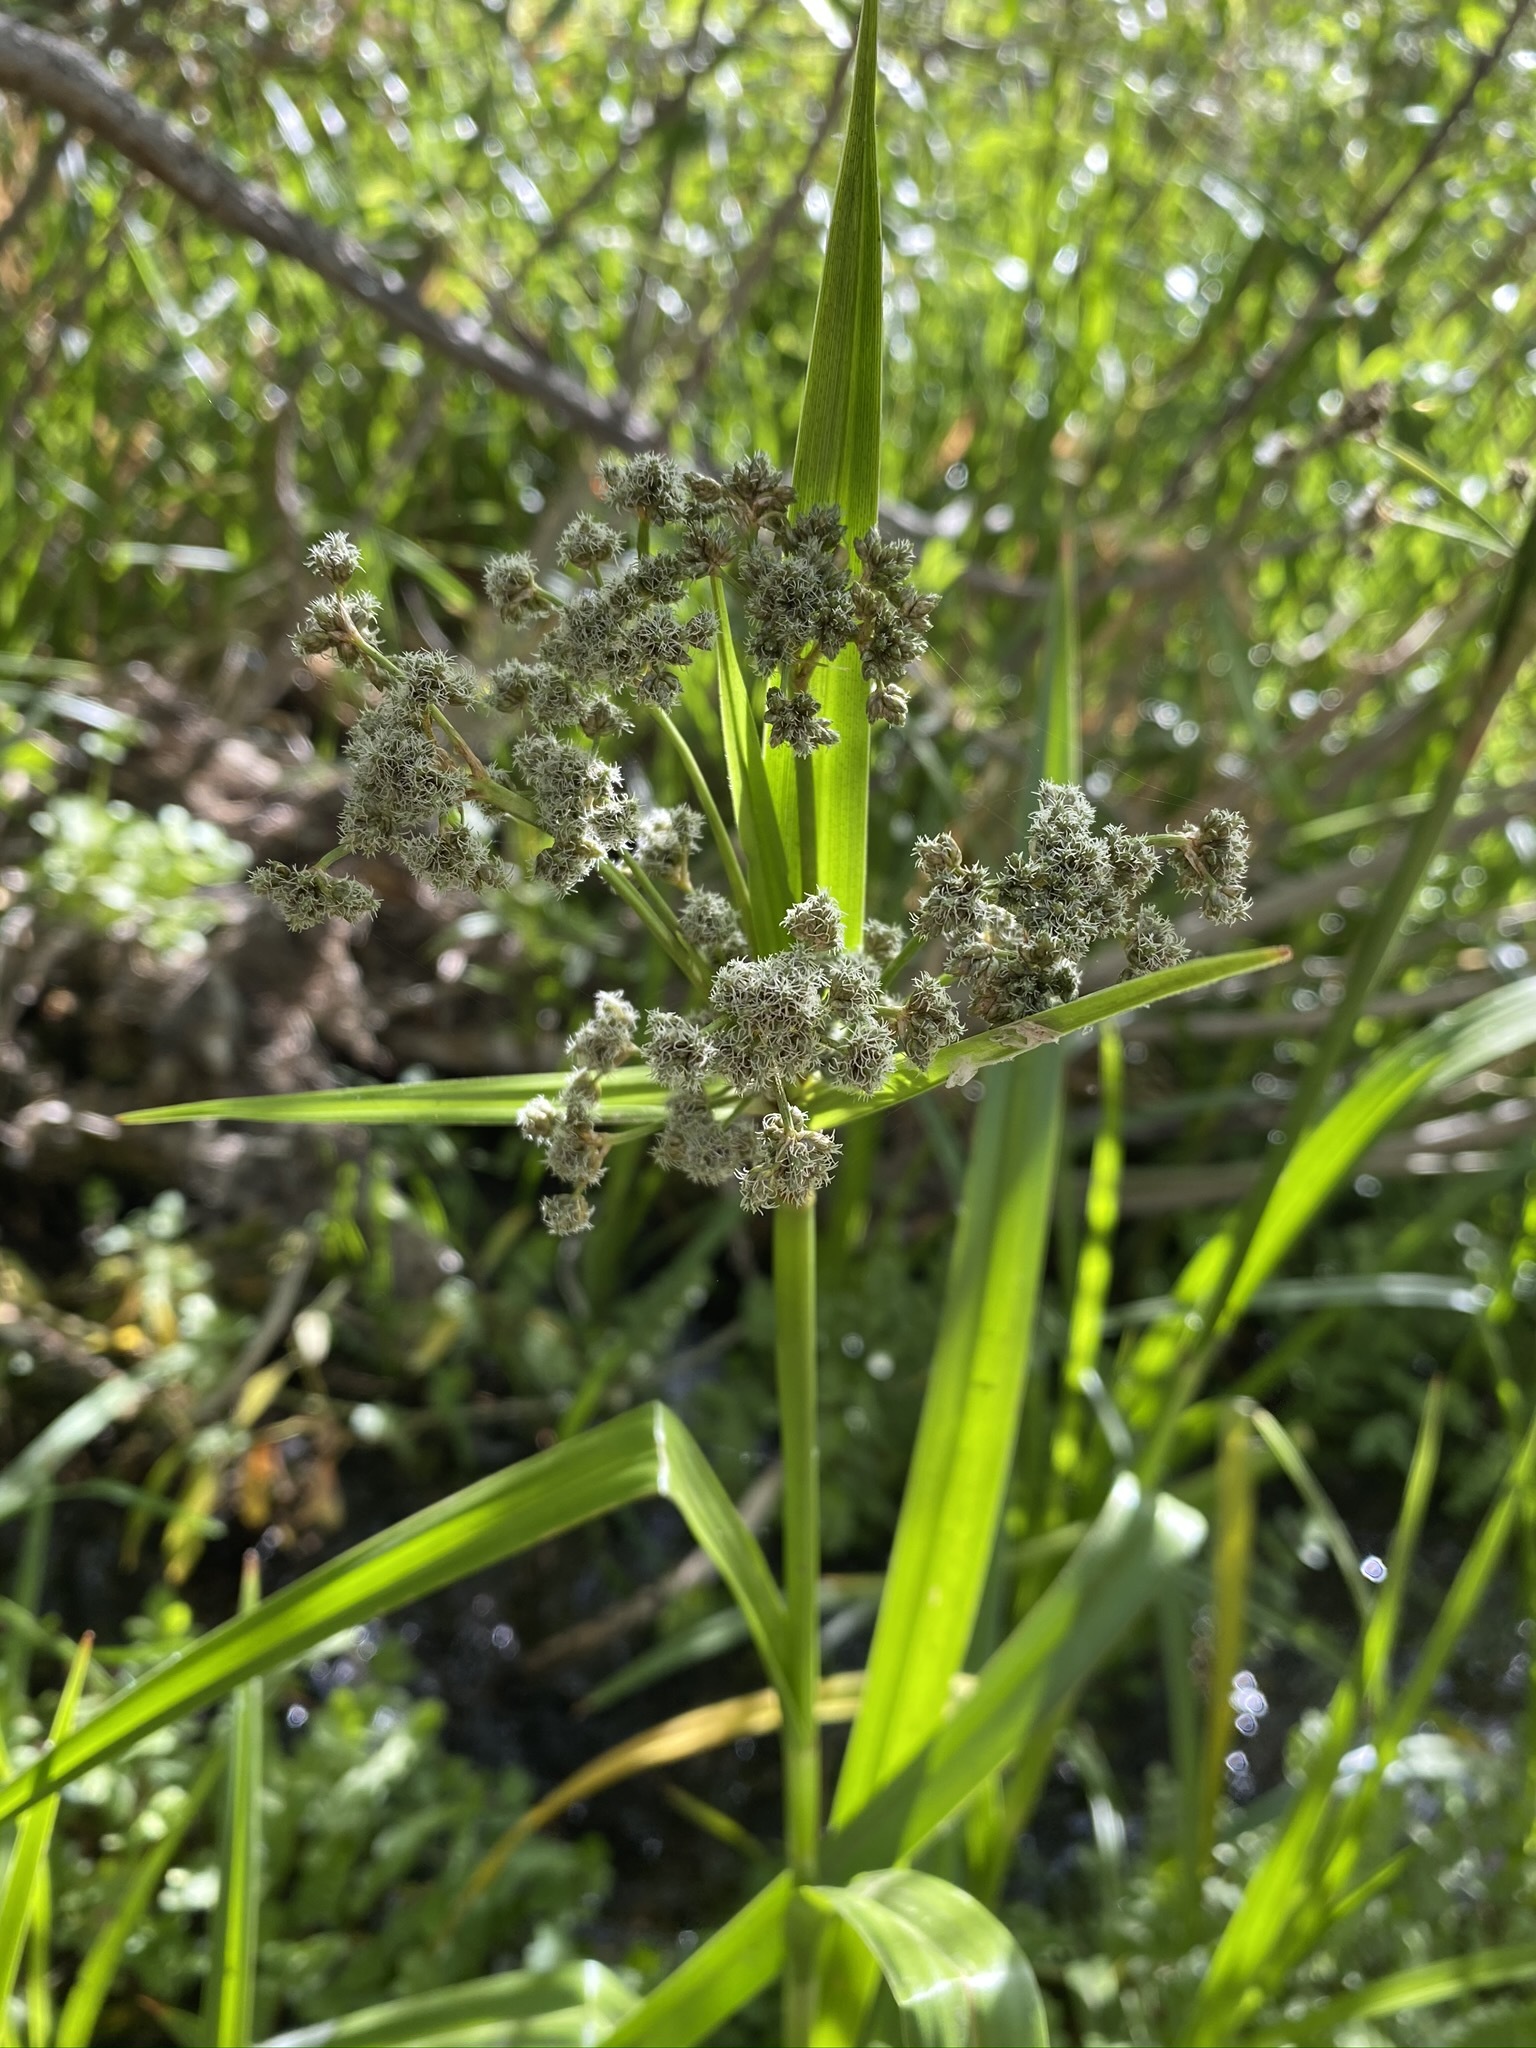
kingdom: Plantae
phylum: Tracheophyta
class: Liliopsida
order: Poales
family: Cyperaceae
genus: Scirpus
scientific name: Scirpus microcarpus
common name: Panicled bulrush
